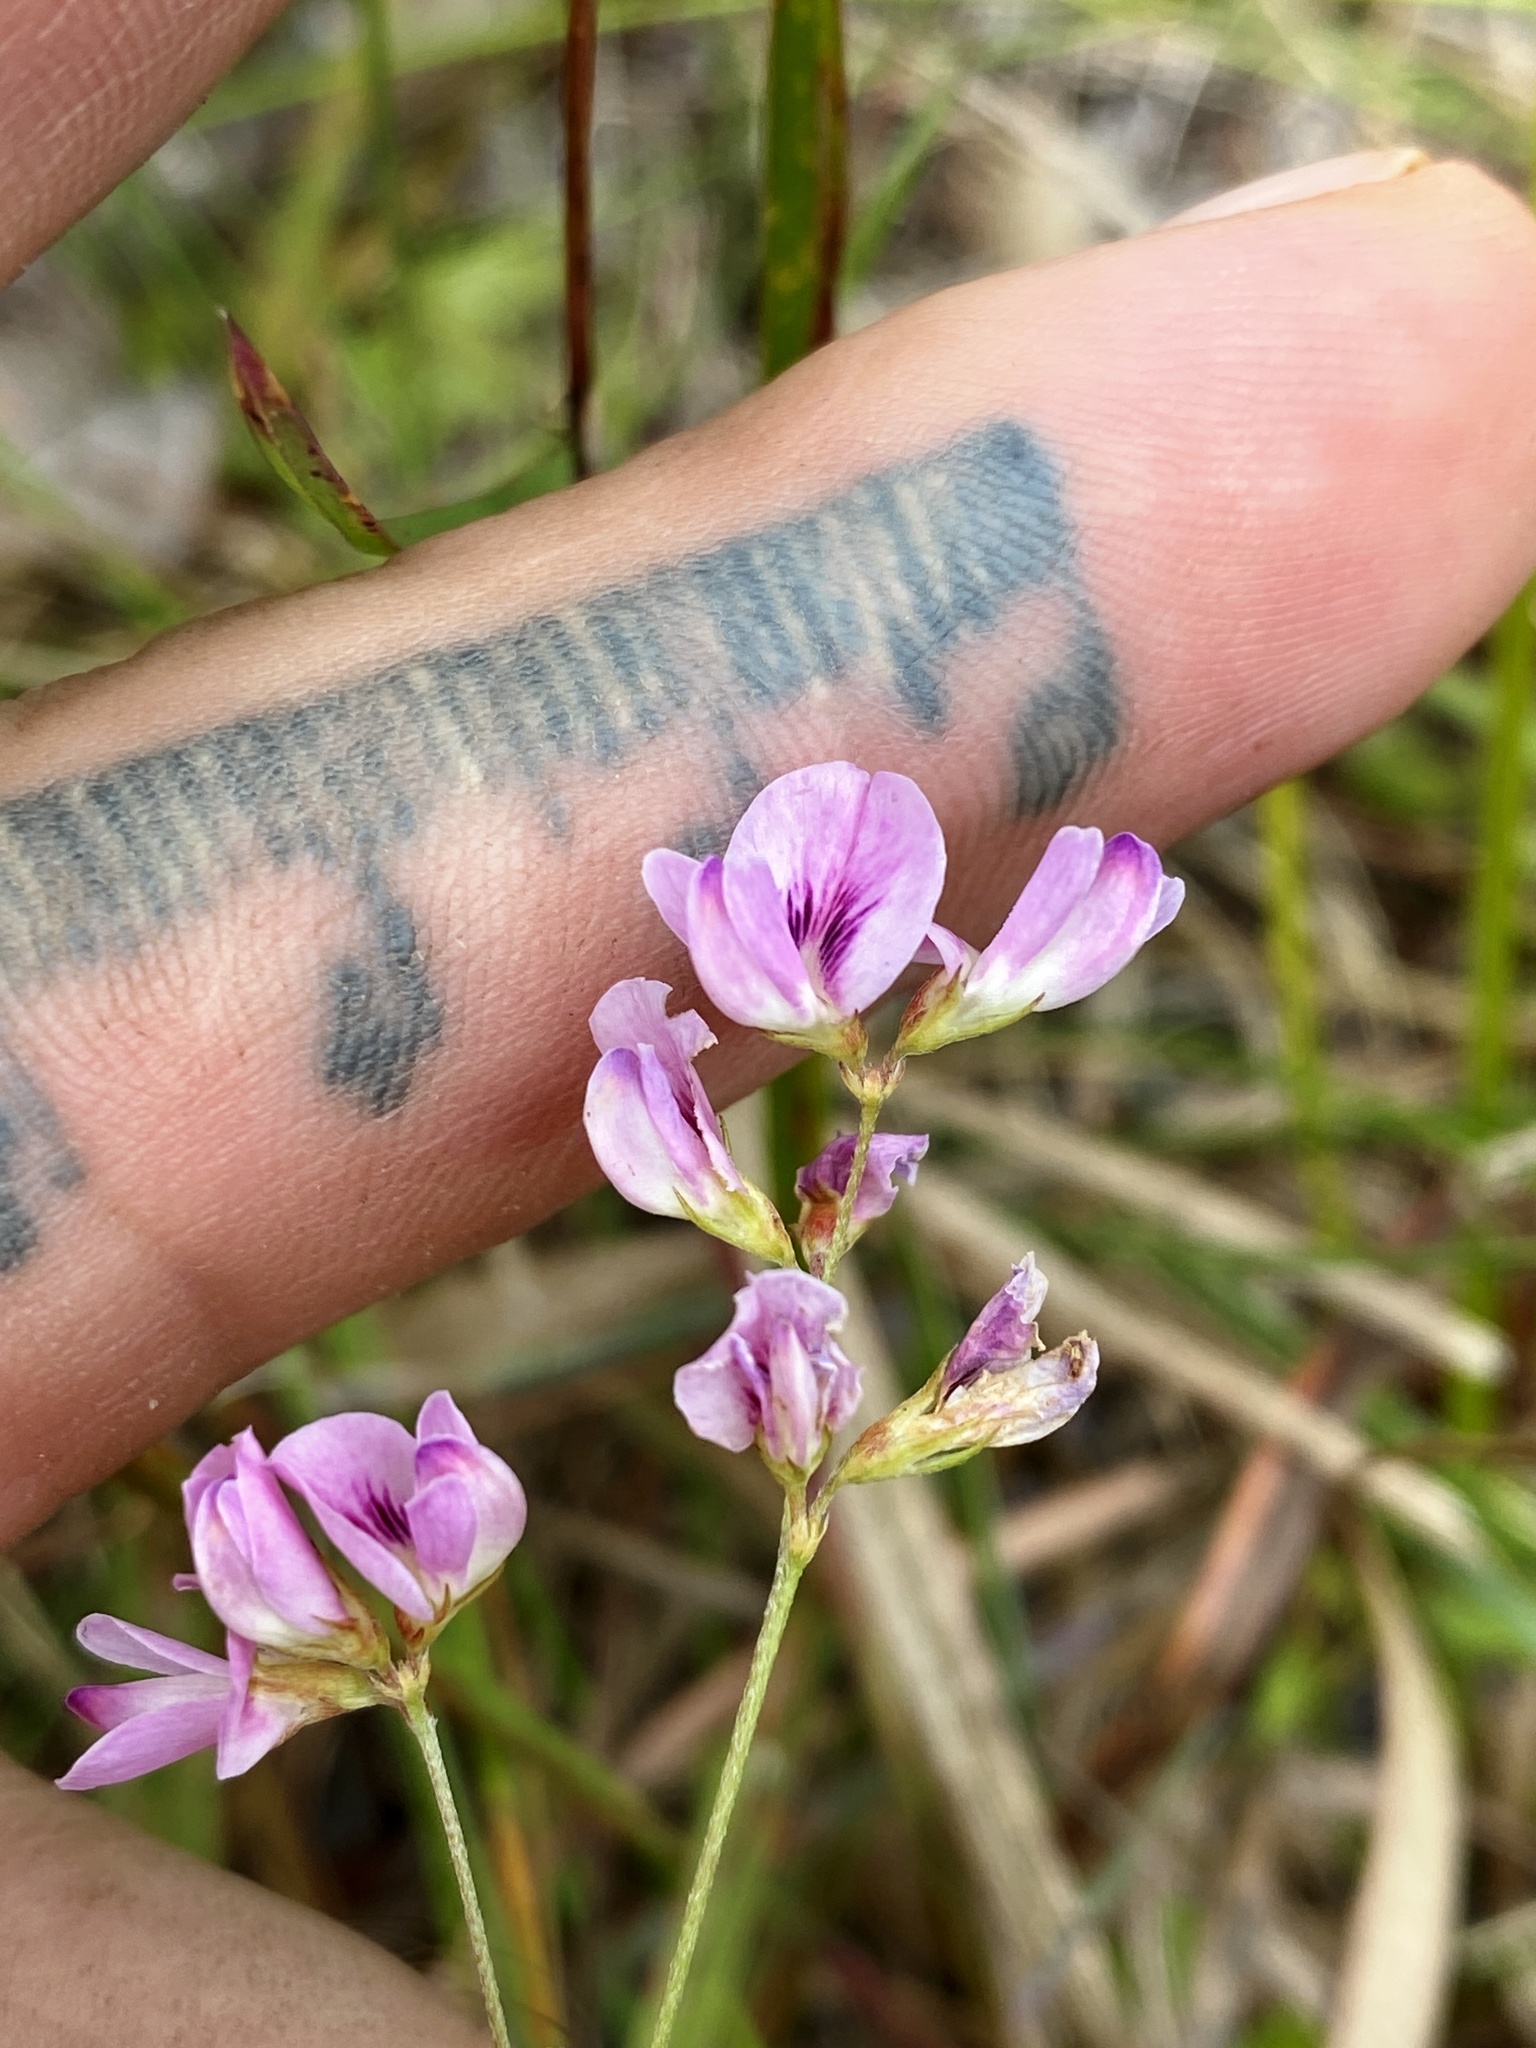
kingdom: Plantae
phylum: Tracheophyta
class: Magnoliopsida
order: Fabales
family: Fabaceae
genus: Lespedeza
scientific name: Lespedeza repens
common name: Creeping bush-clover
